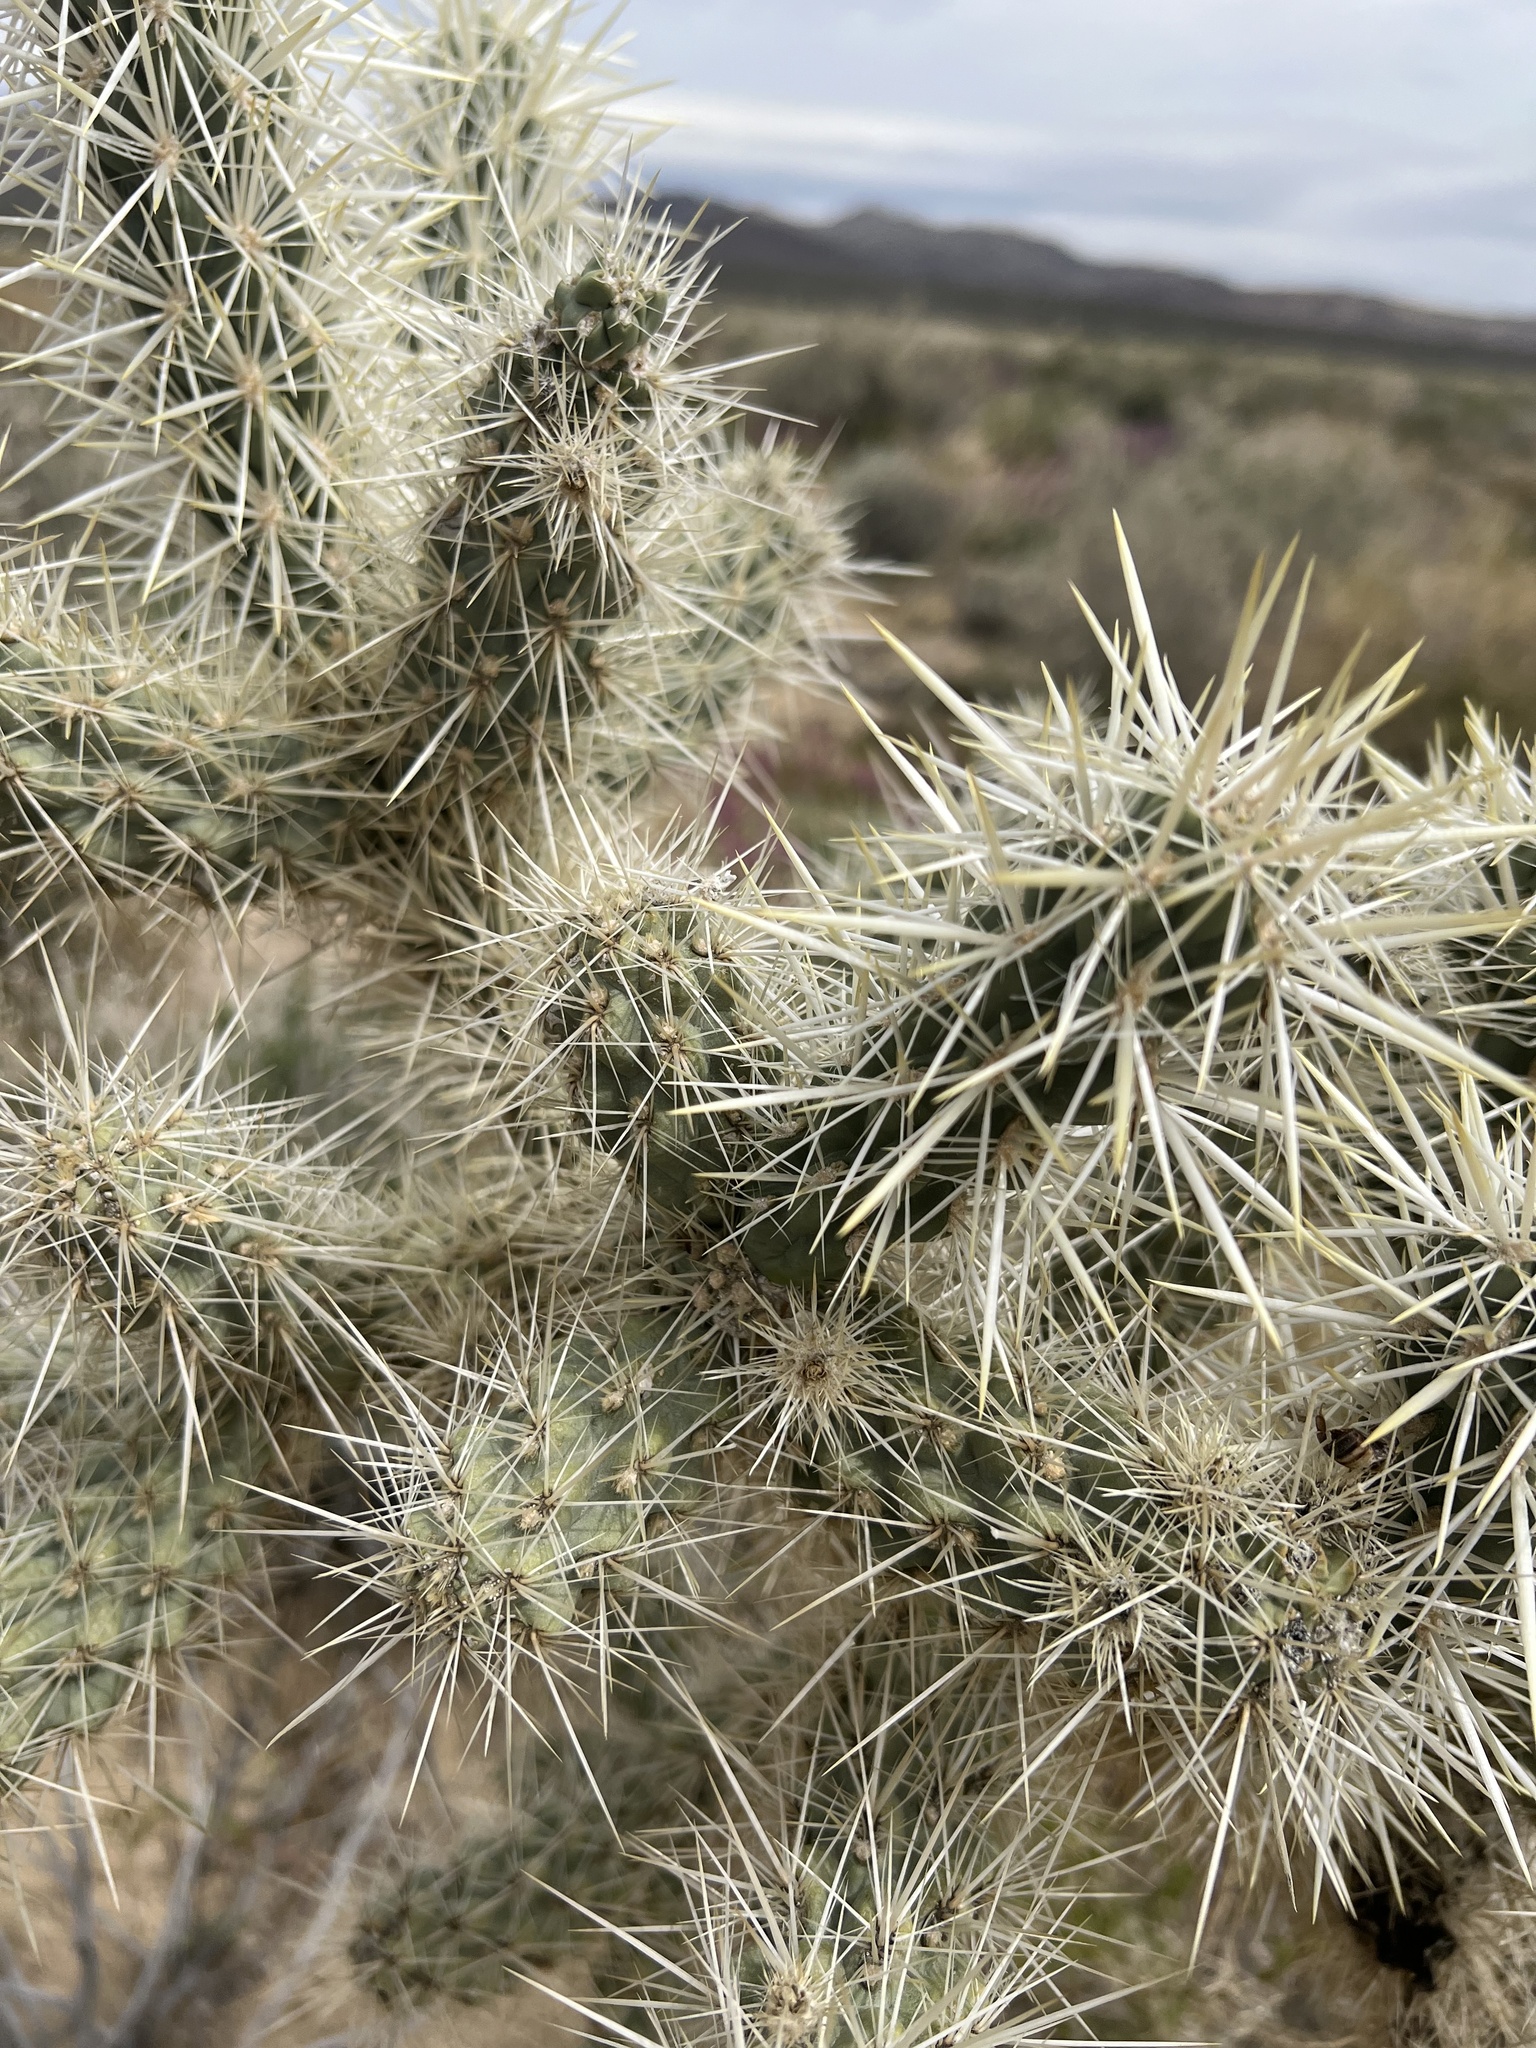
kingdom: Plantae
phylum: Tracheophyta
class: Magnoliopsida
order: Caryophyllales
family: Cactaceae
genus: Cylindropuntia
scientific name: Cylindropuntia echinocarpa
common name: Ground cholla
